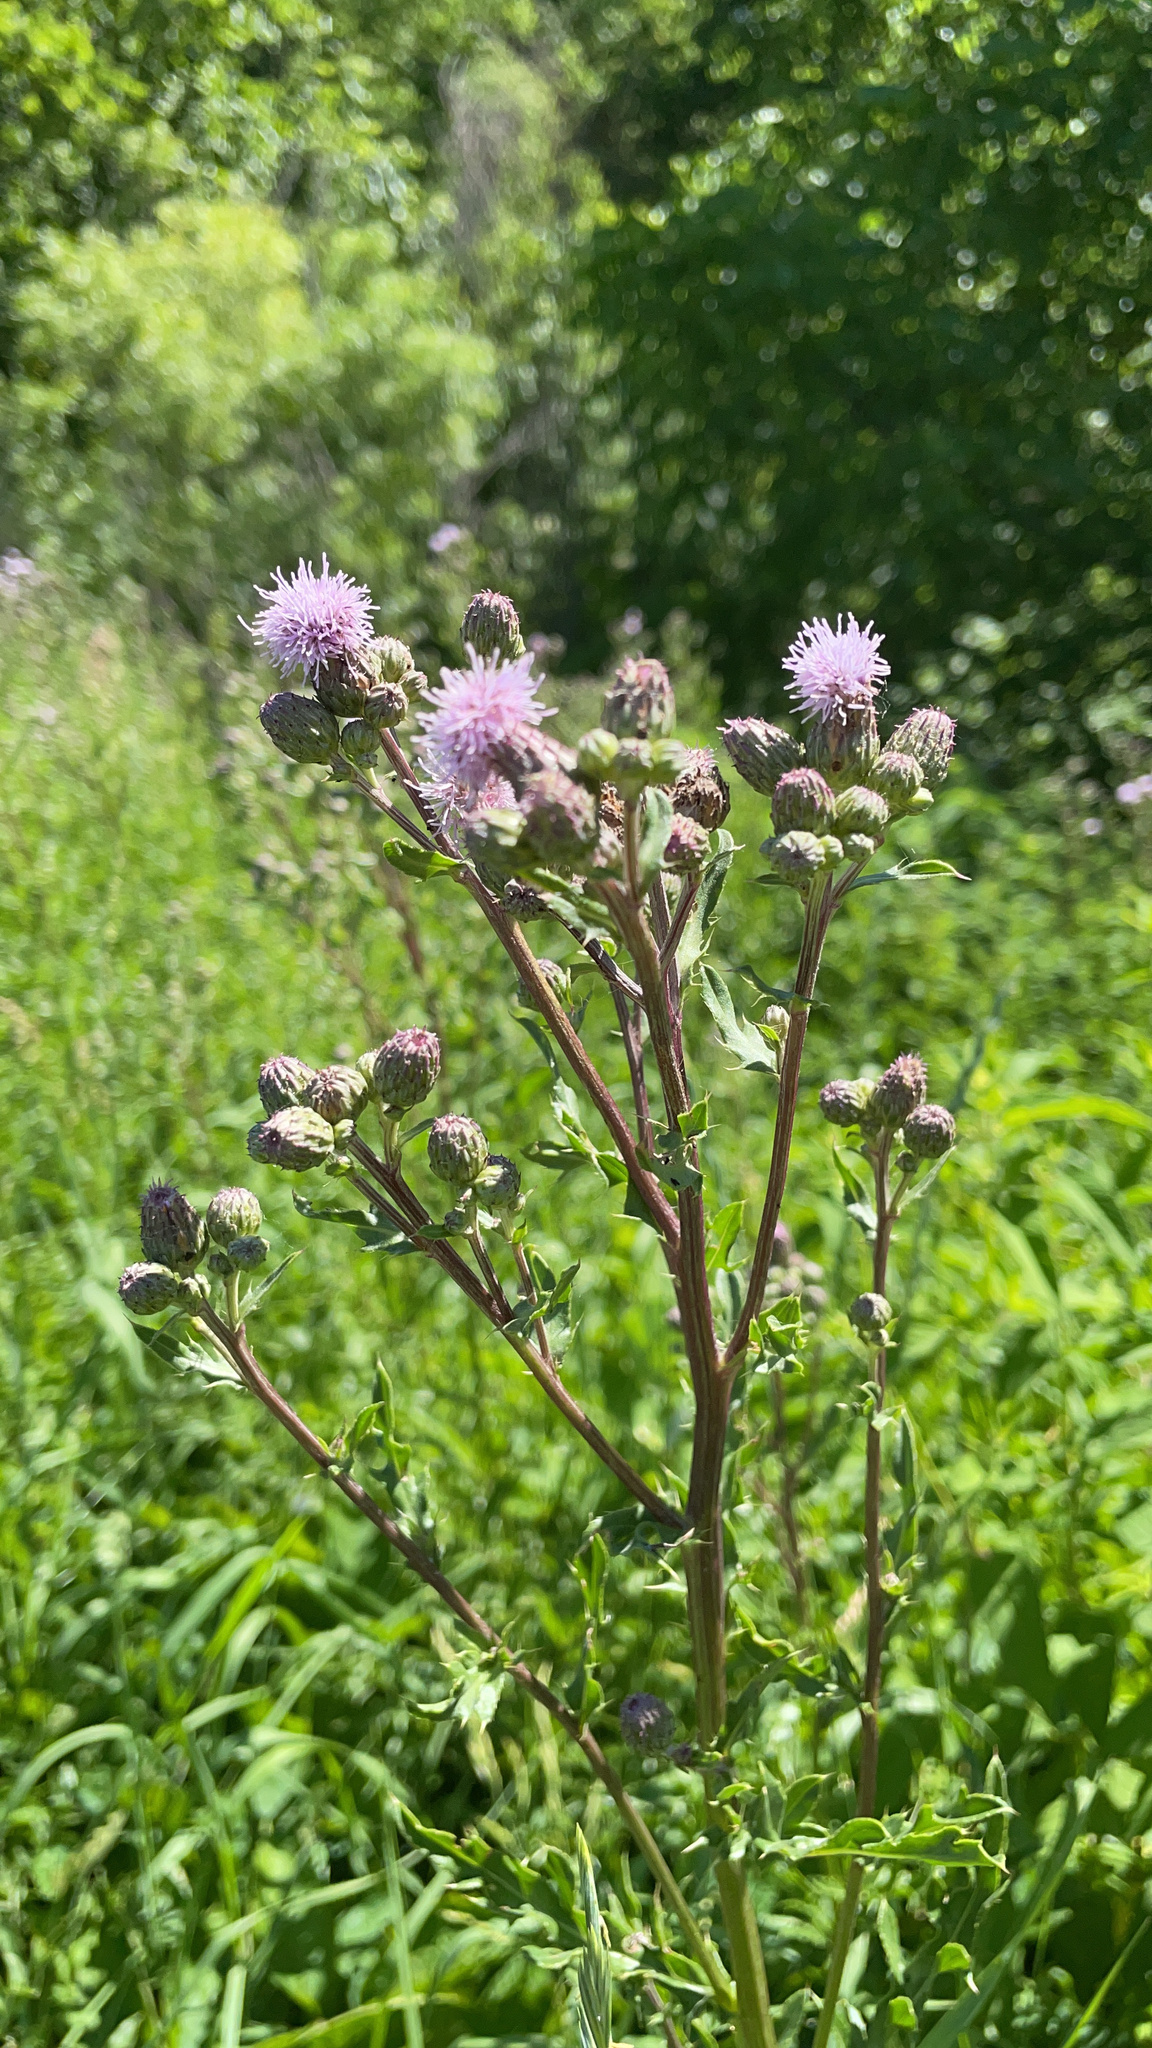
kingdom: Plantae
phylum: Tracheophyta
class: Magnoliopsida
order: Asterales
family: Asteraceae
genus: Cirsium
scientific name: Cirsium arvense
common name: Creeping thistle
